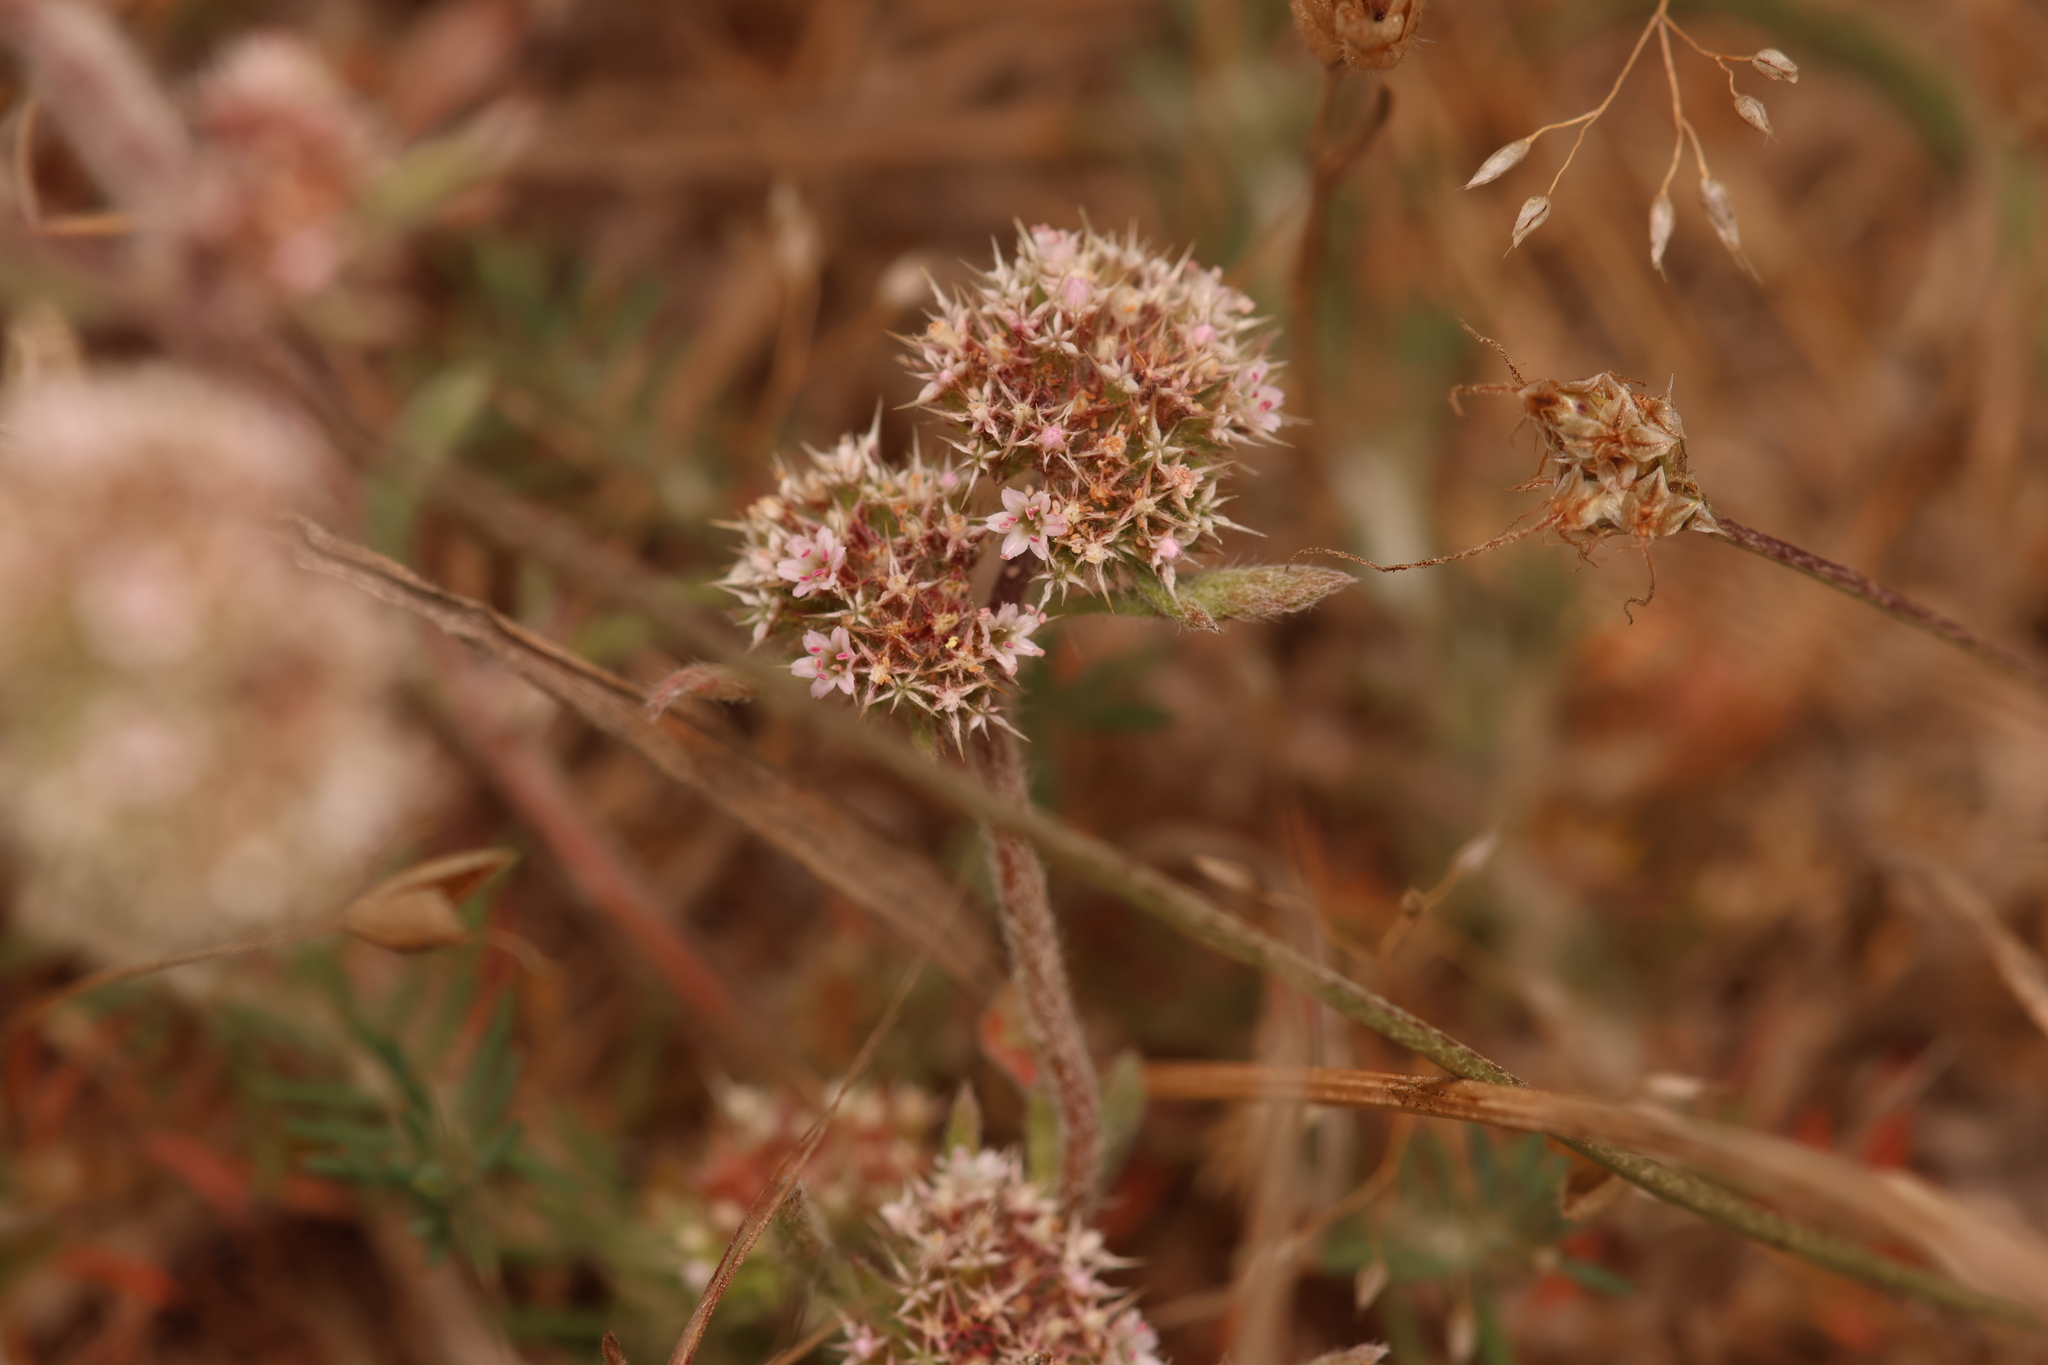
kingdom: Plantae
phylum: Tracheophyta
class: Magnoliopsida
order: Caryophyllales
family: Polygonaceae
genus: Chorizanthe
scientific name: Chorizanthe cuspidata
